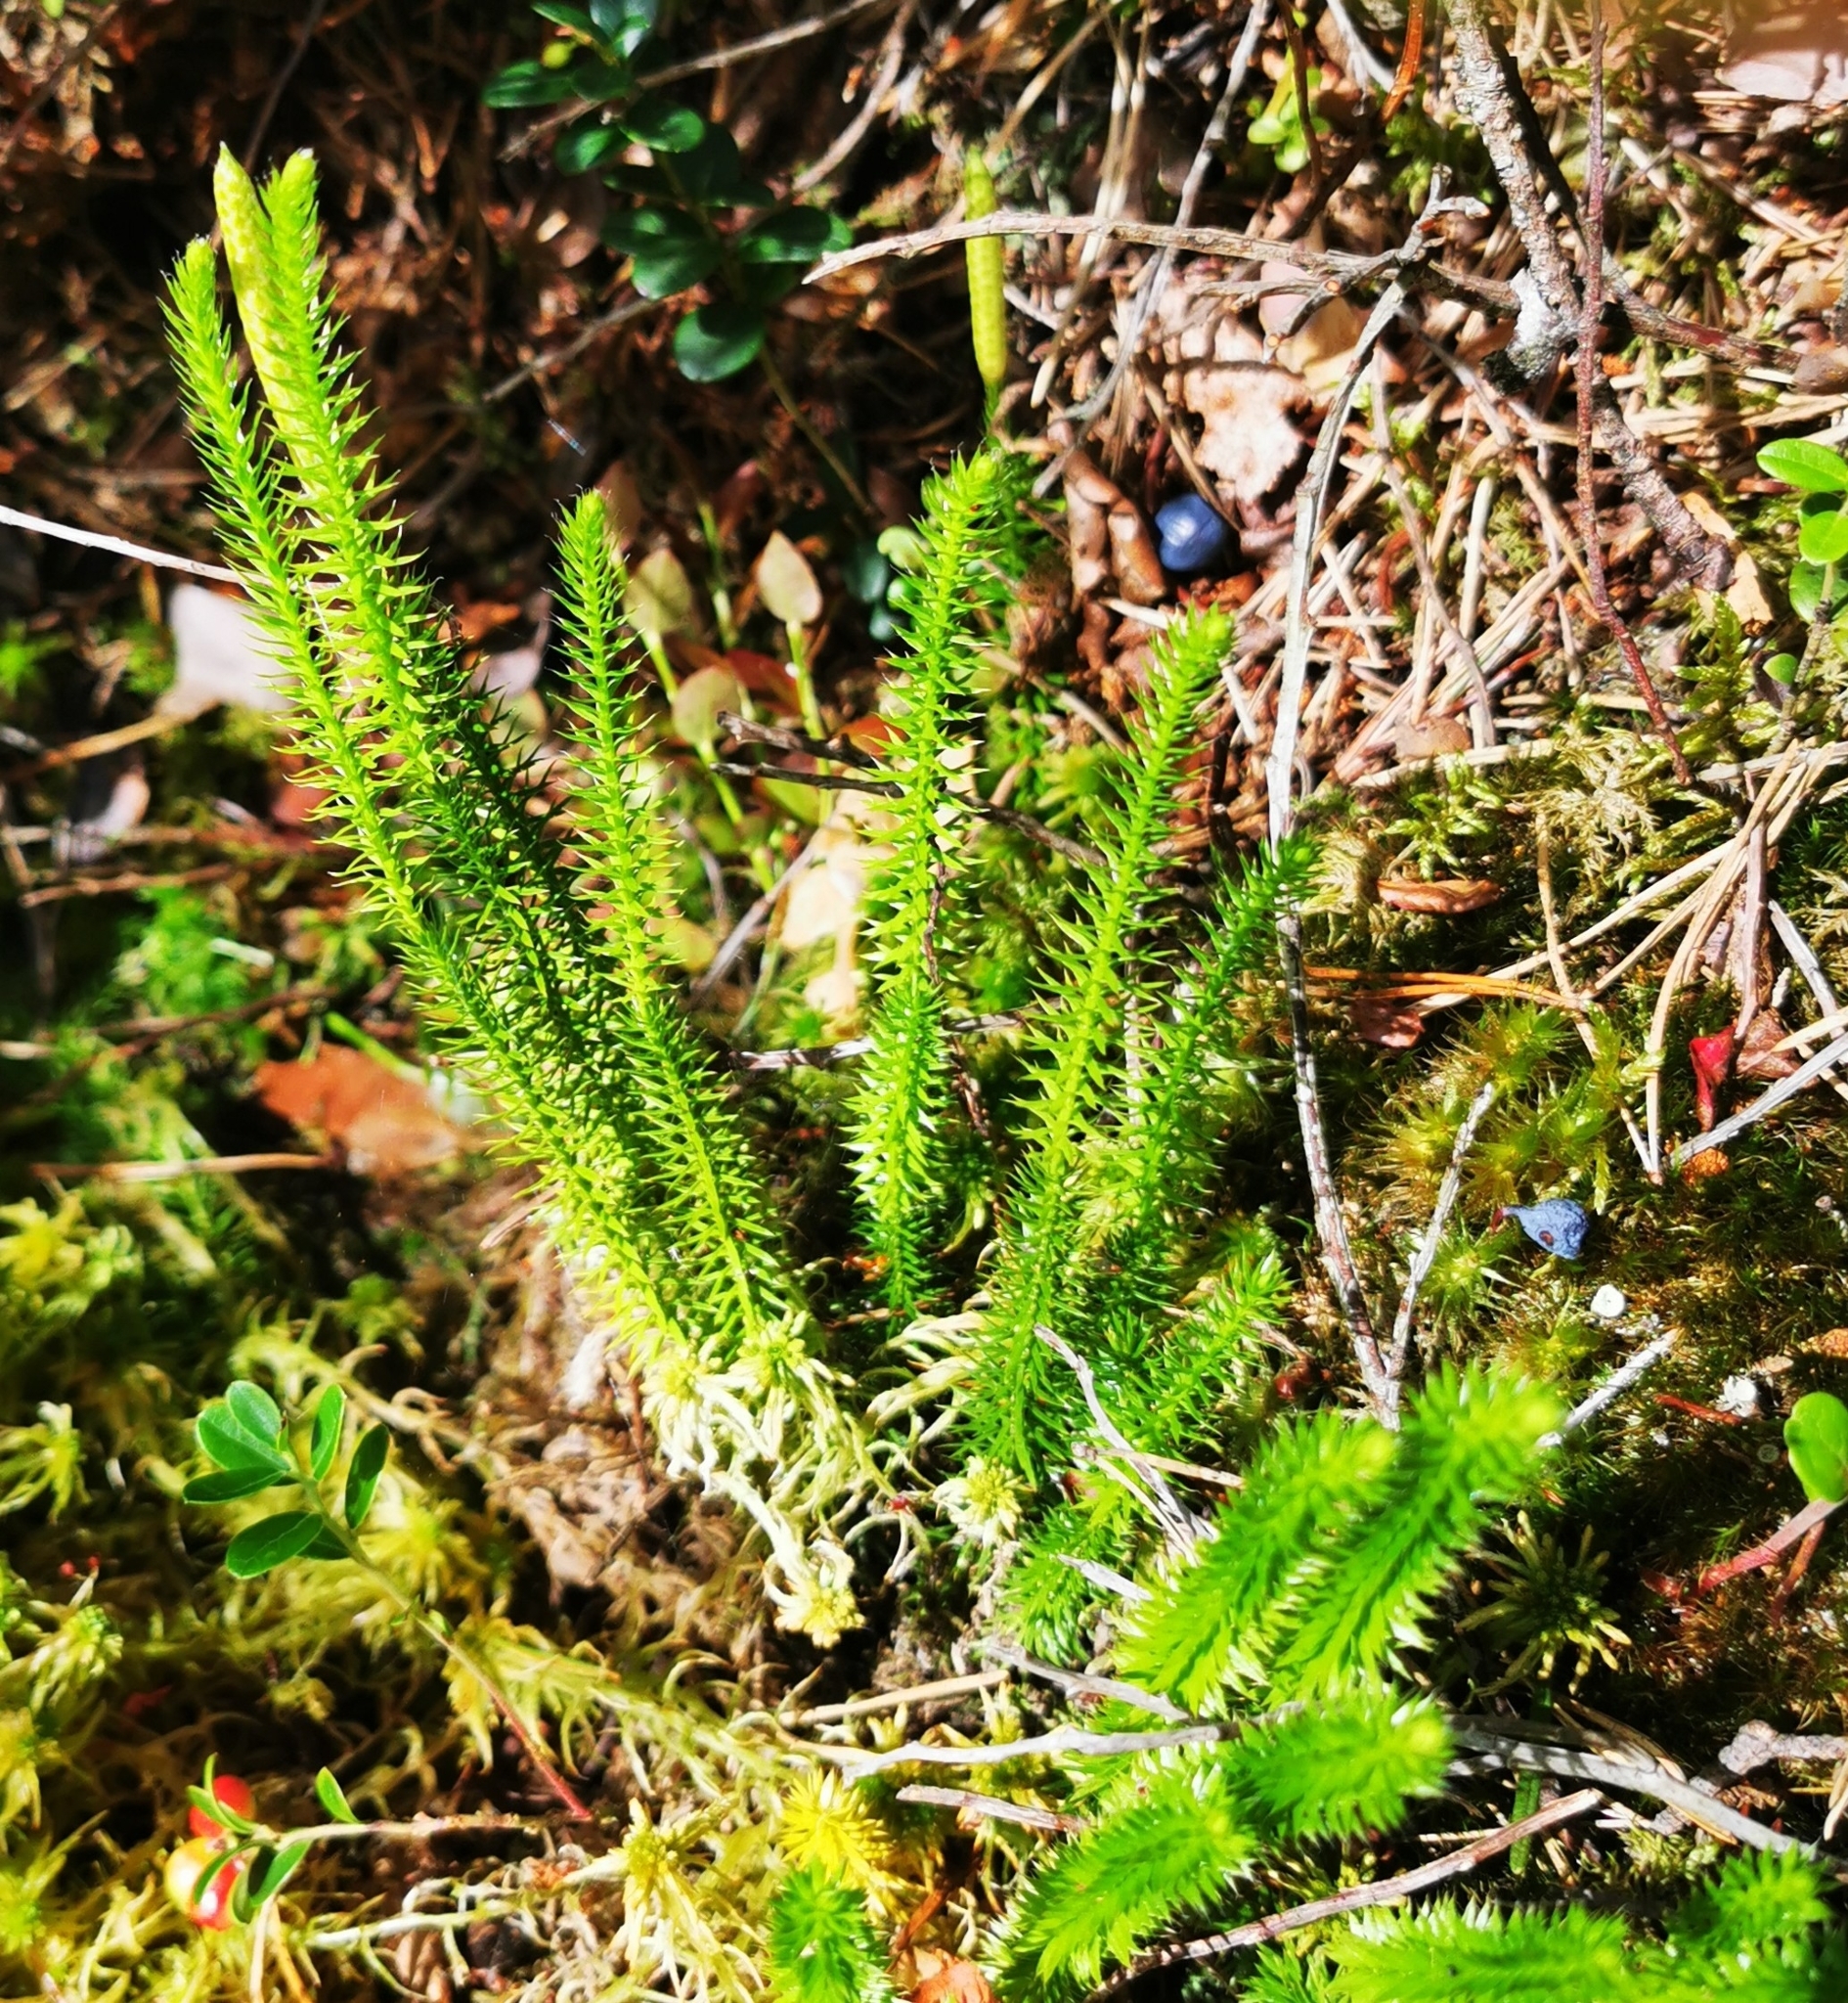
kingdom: Plantae
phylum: Tracheophyta
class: Lycopodiopsida
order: Lycopodiales
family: Lycopodiaceae
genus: Spinulum
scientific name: Spinulum annotinum
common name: Interrupted club-moss
